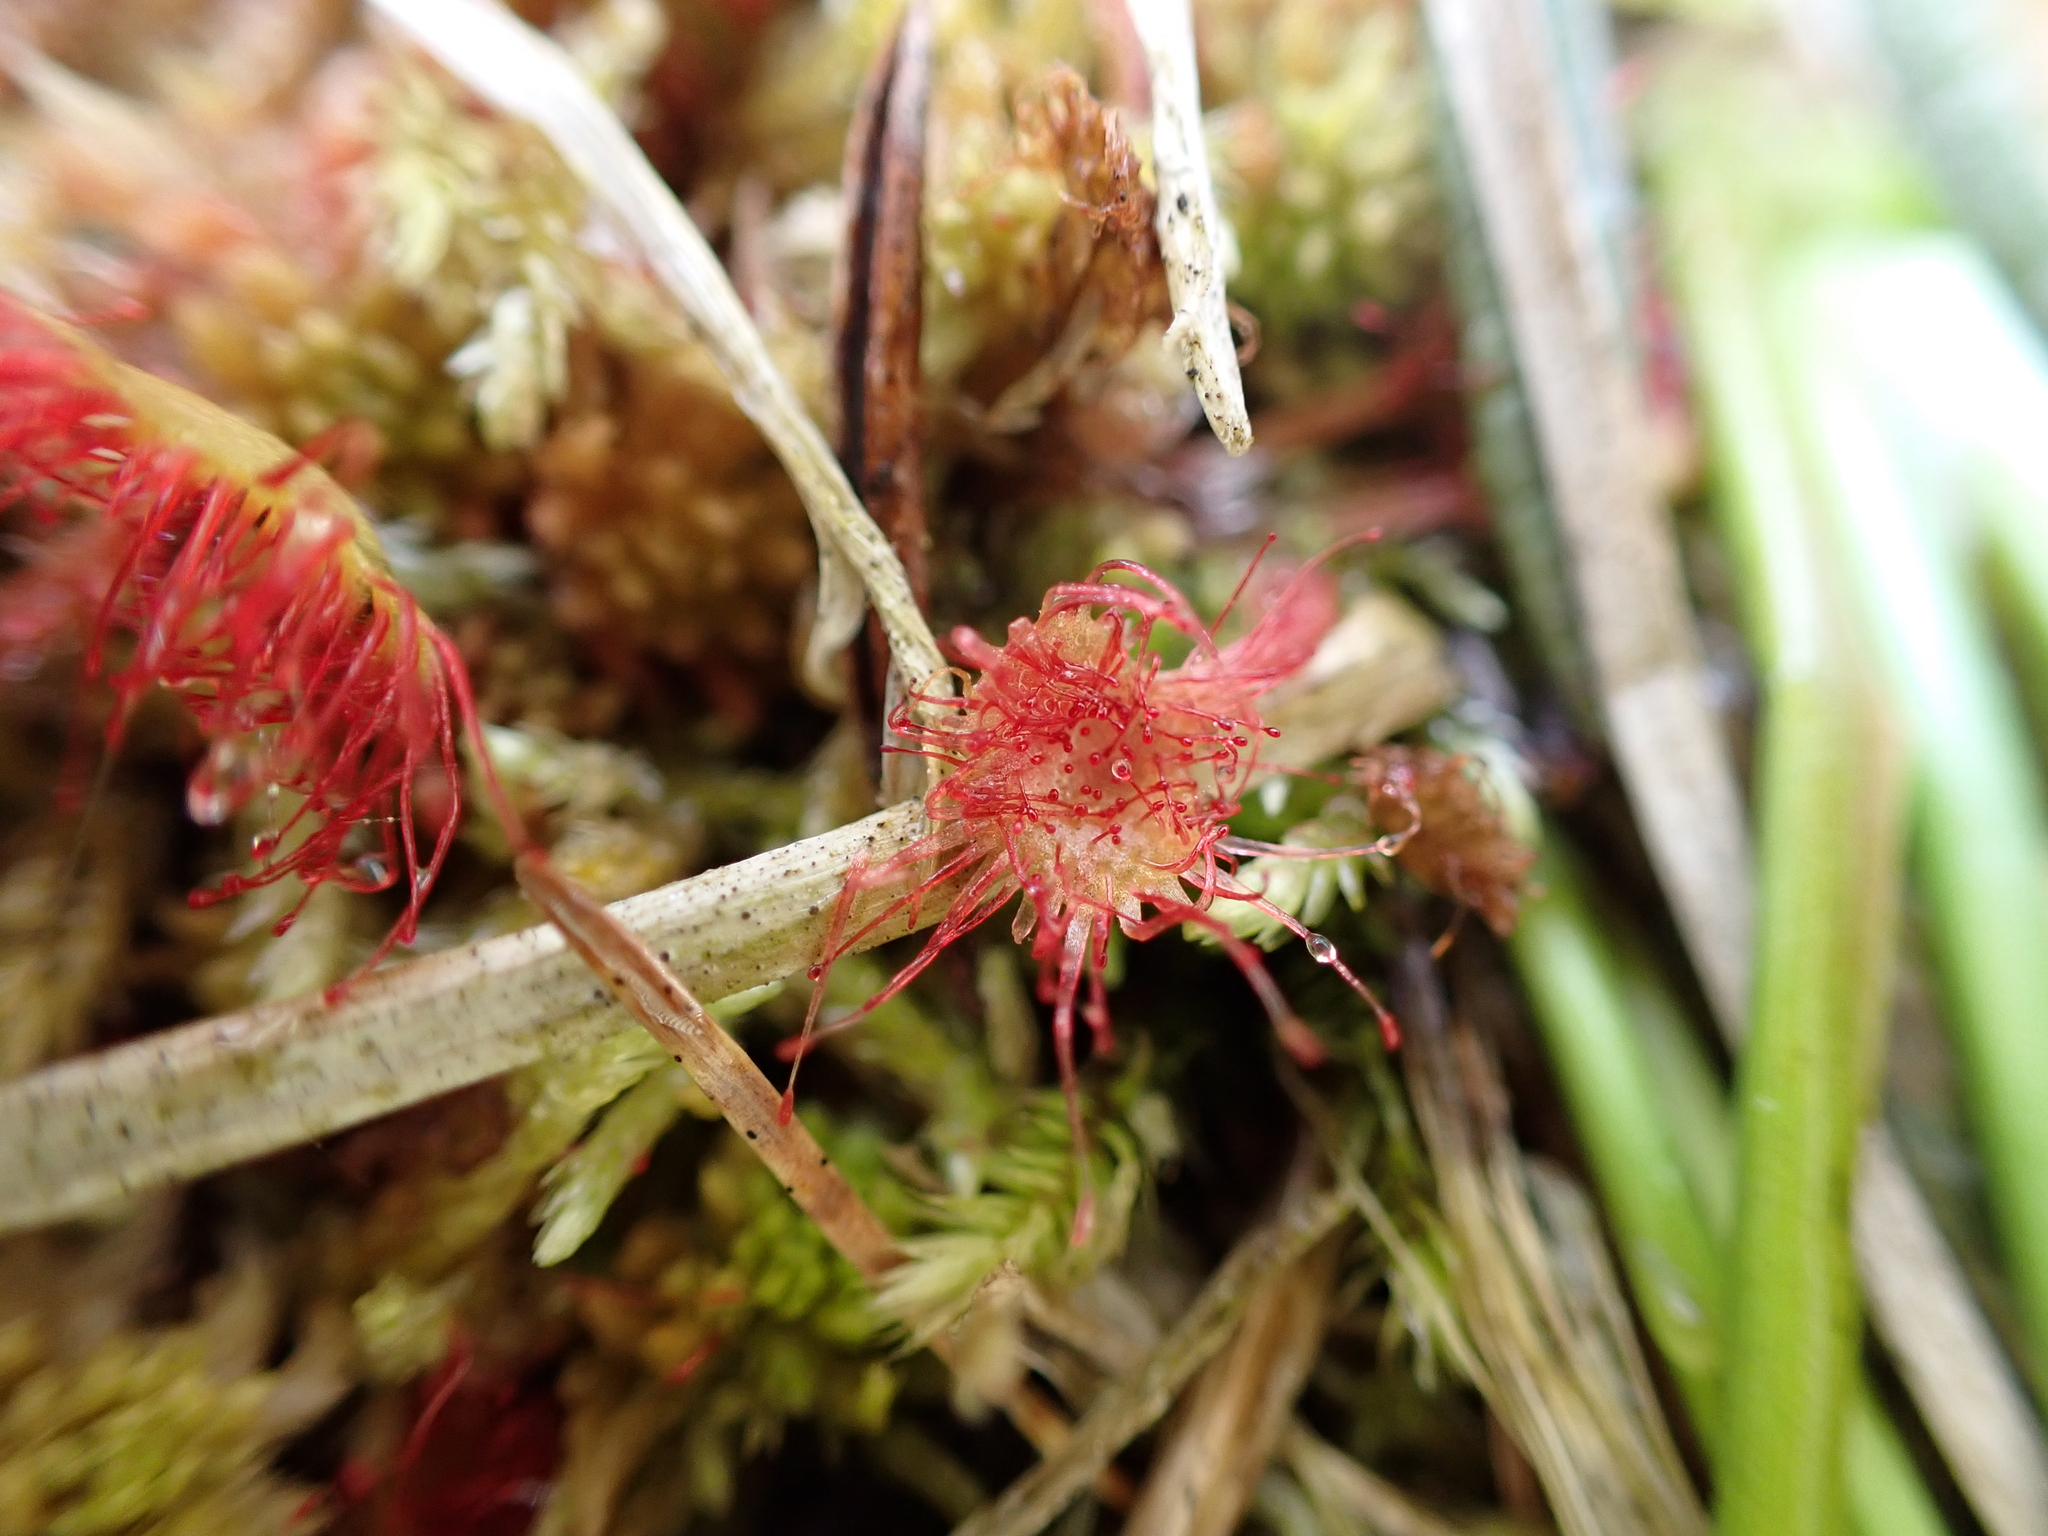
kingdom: Plantae
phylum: Tracheophyta
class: Magnoliopsida
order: Caryophyllales
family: Droseraceae
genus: Drosera
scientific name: Drosera rotundifolia
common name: Round-leaved sundew
